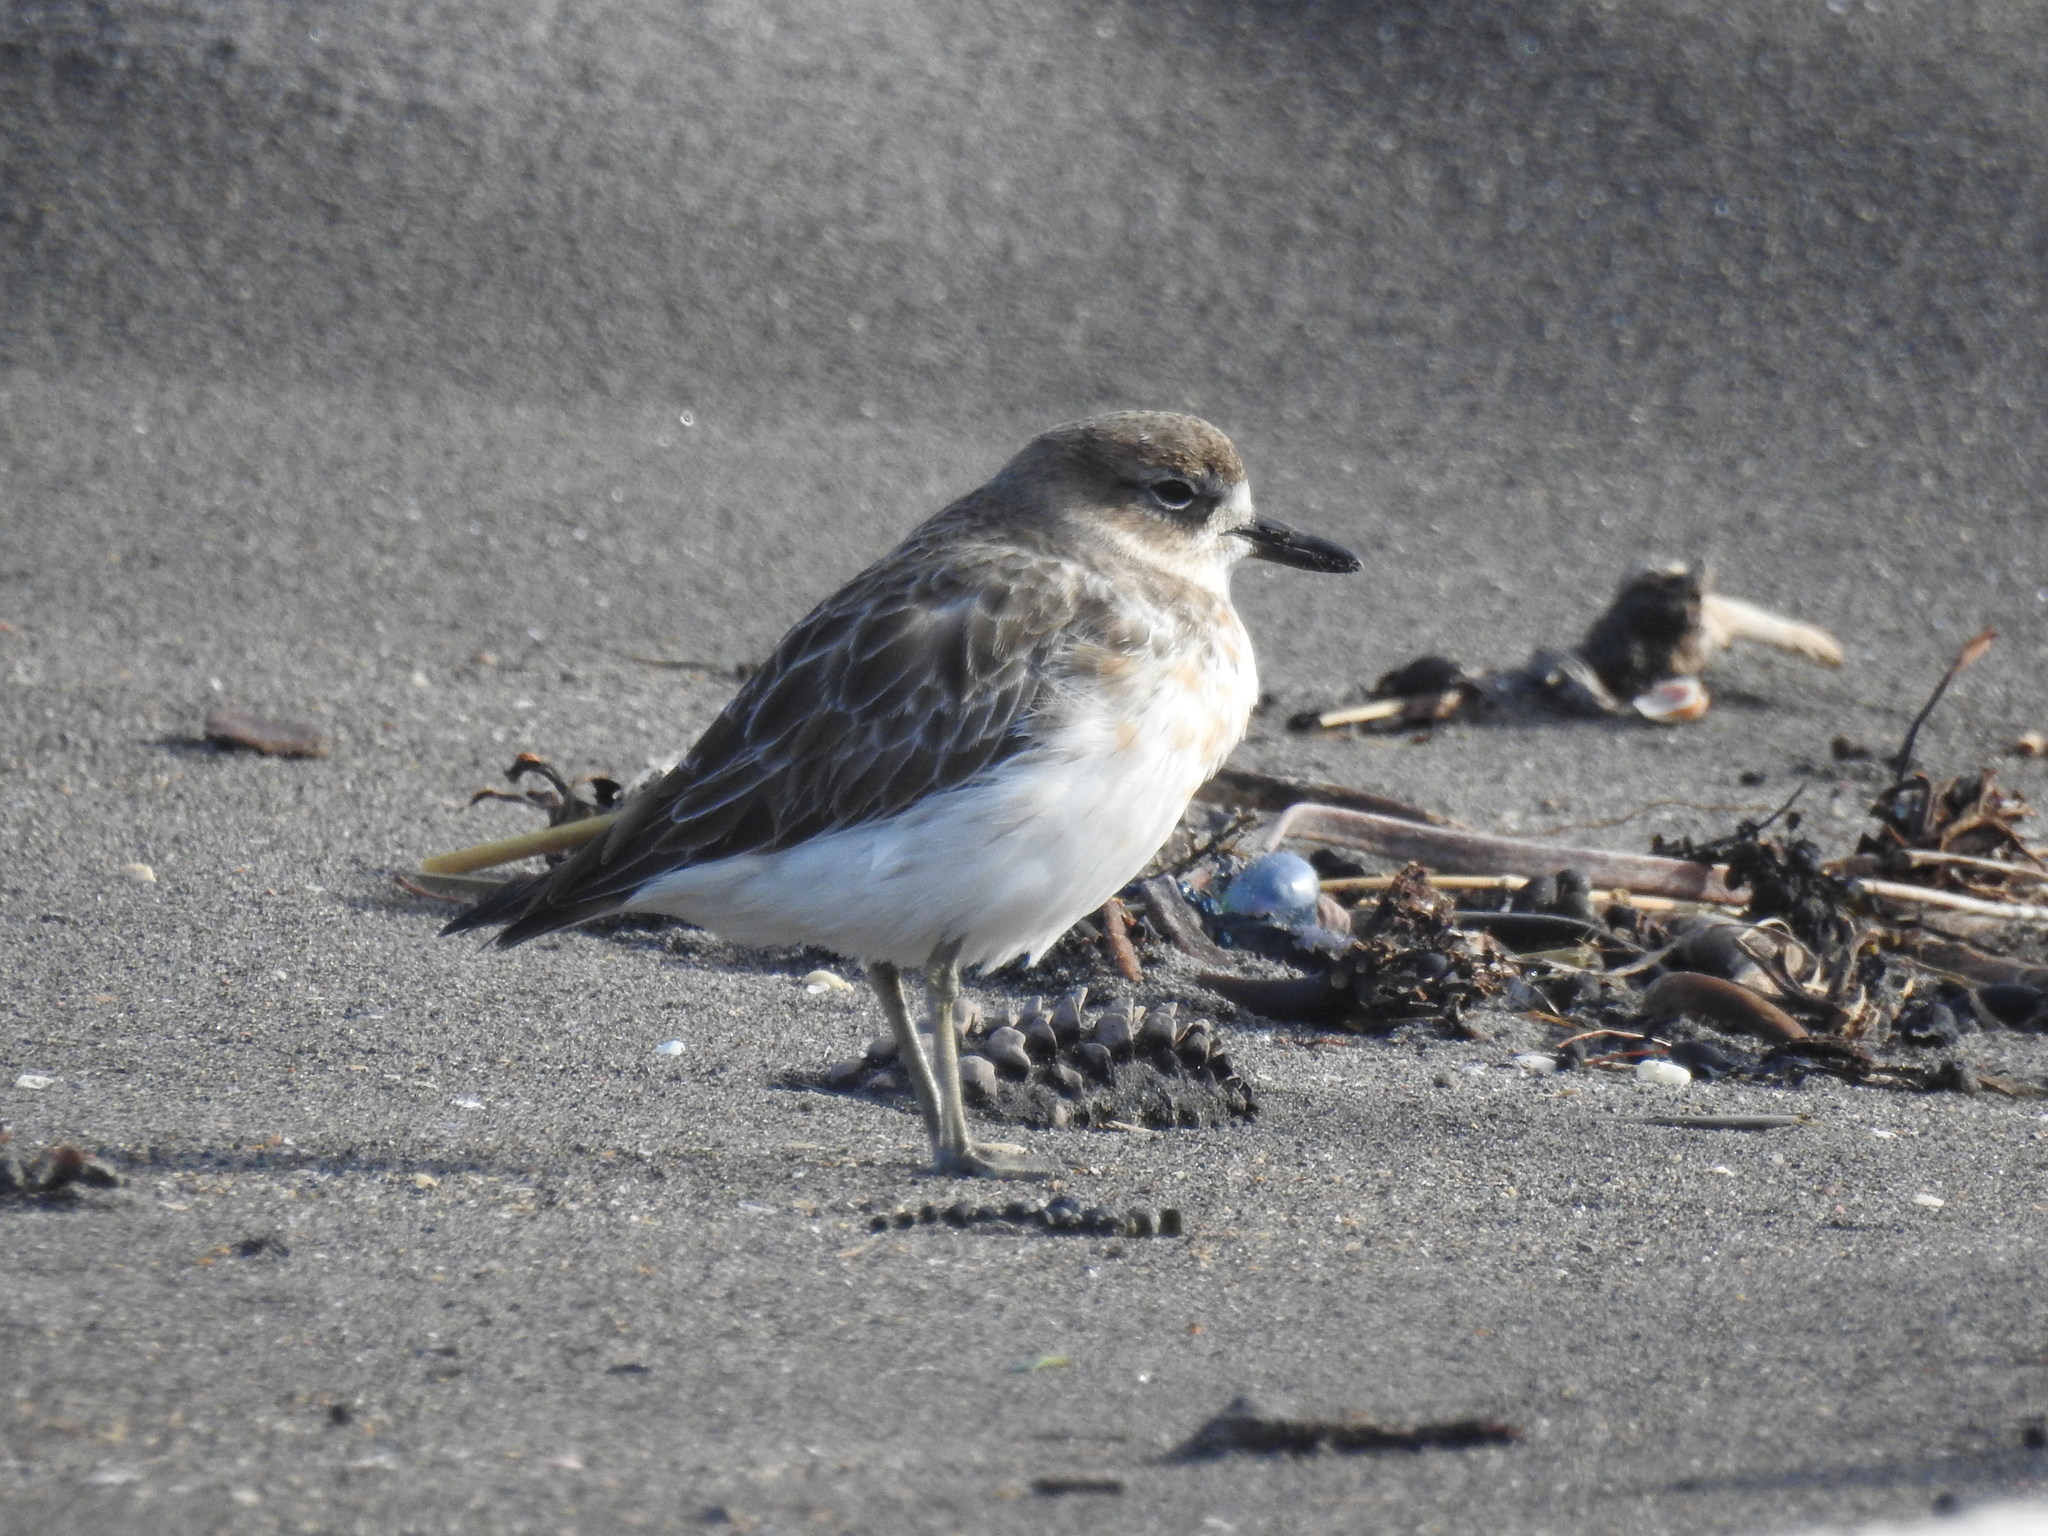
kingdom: Animalia
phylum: Chordata
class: Aves
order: Charadriiformes
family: Charadriidae
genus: Anarhynchus
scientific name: Anarhynchus
